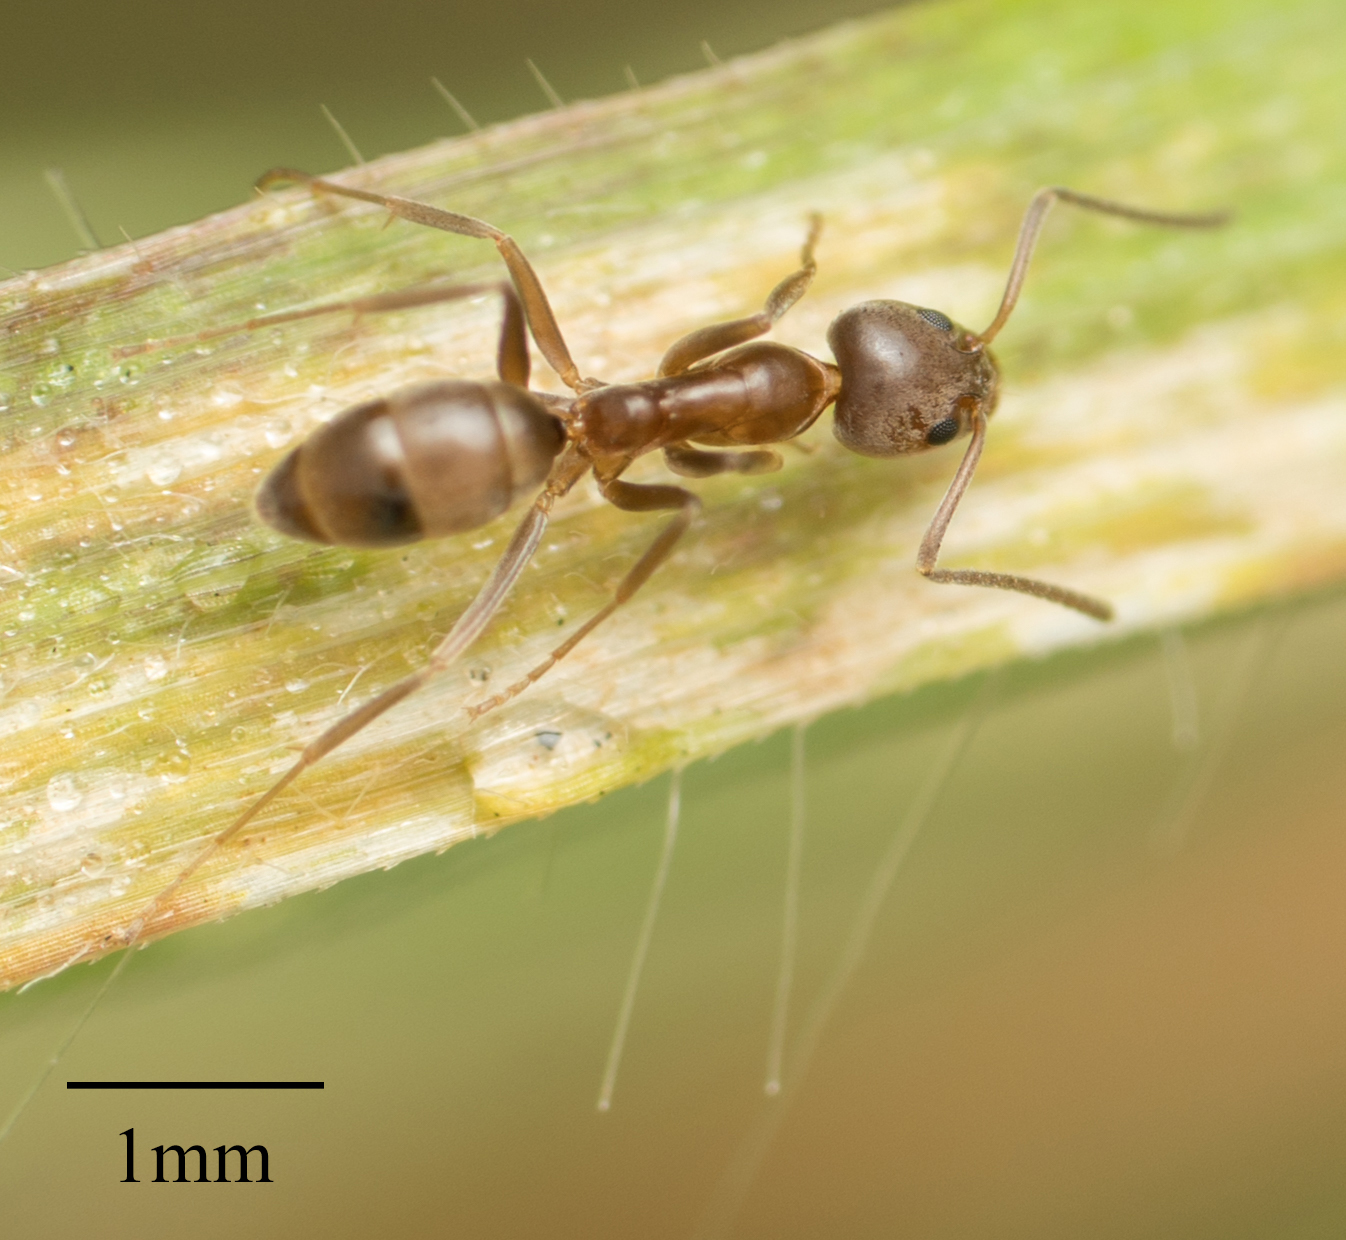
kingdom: Animalia
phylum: Arthropoda
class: Insecta
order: Hymenoptera
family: Formicidae
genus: Linepithema
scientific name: Linepithema humile
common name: Argentine ant
